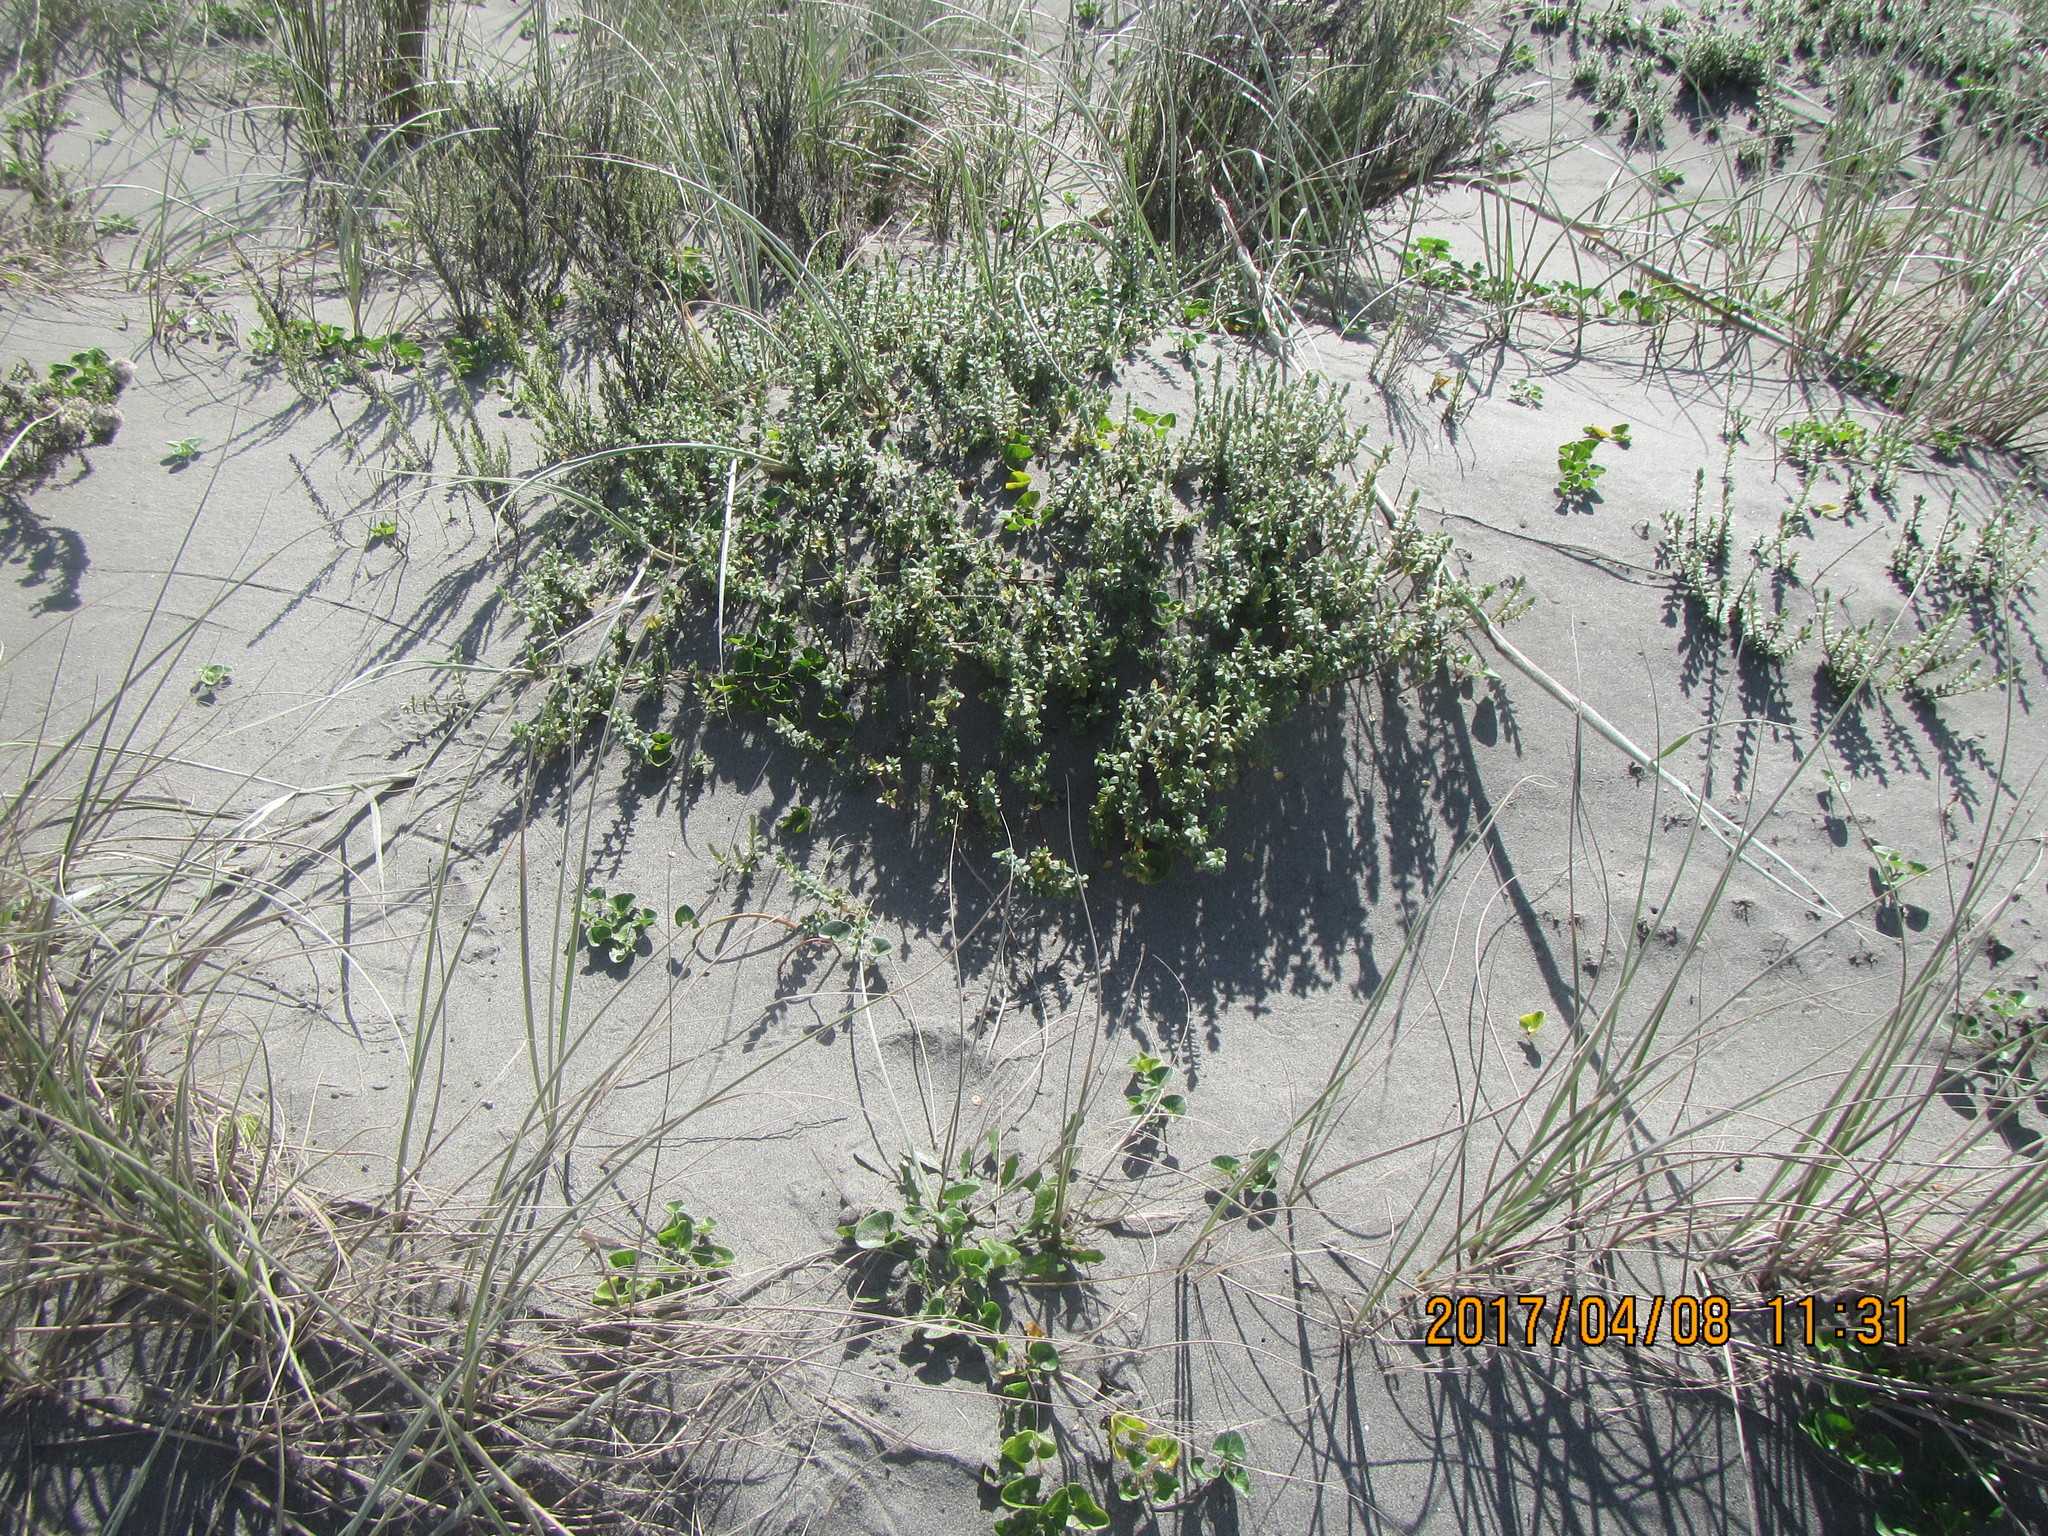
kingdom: Plantae
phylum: Tracheophyta
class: Magnoliopsida
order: Malvales
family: Thymelaeaceae
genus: Pimelea
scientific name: Pimelea villosa
